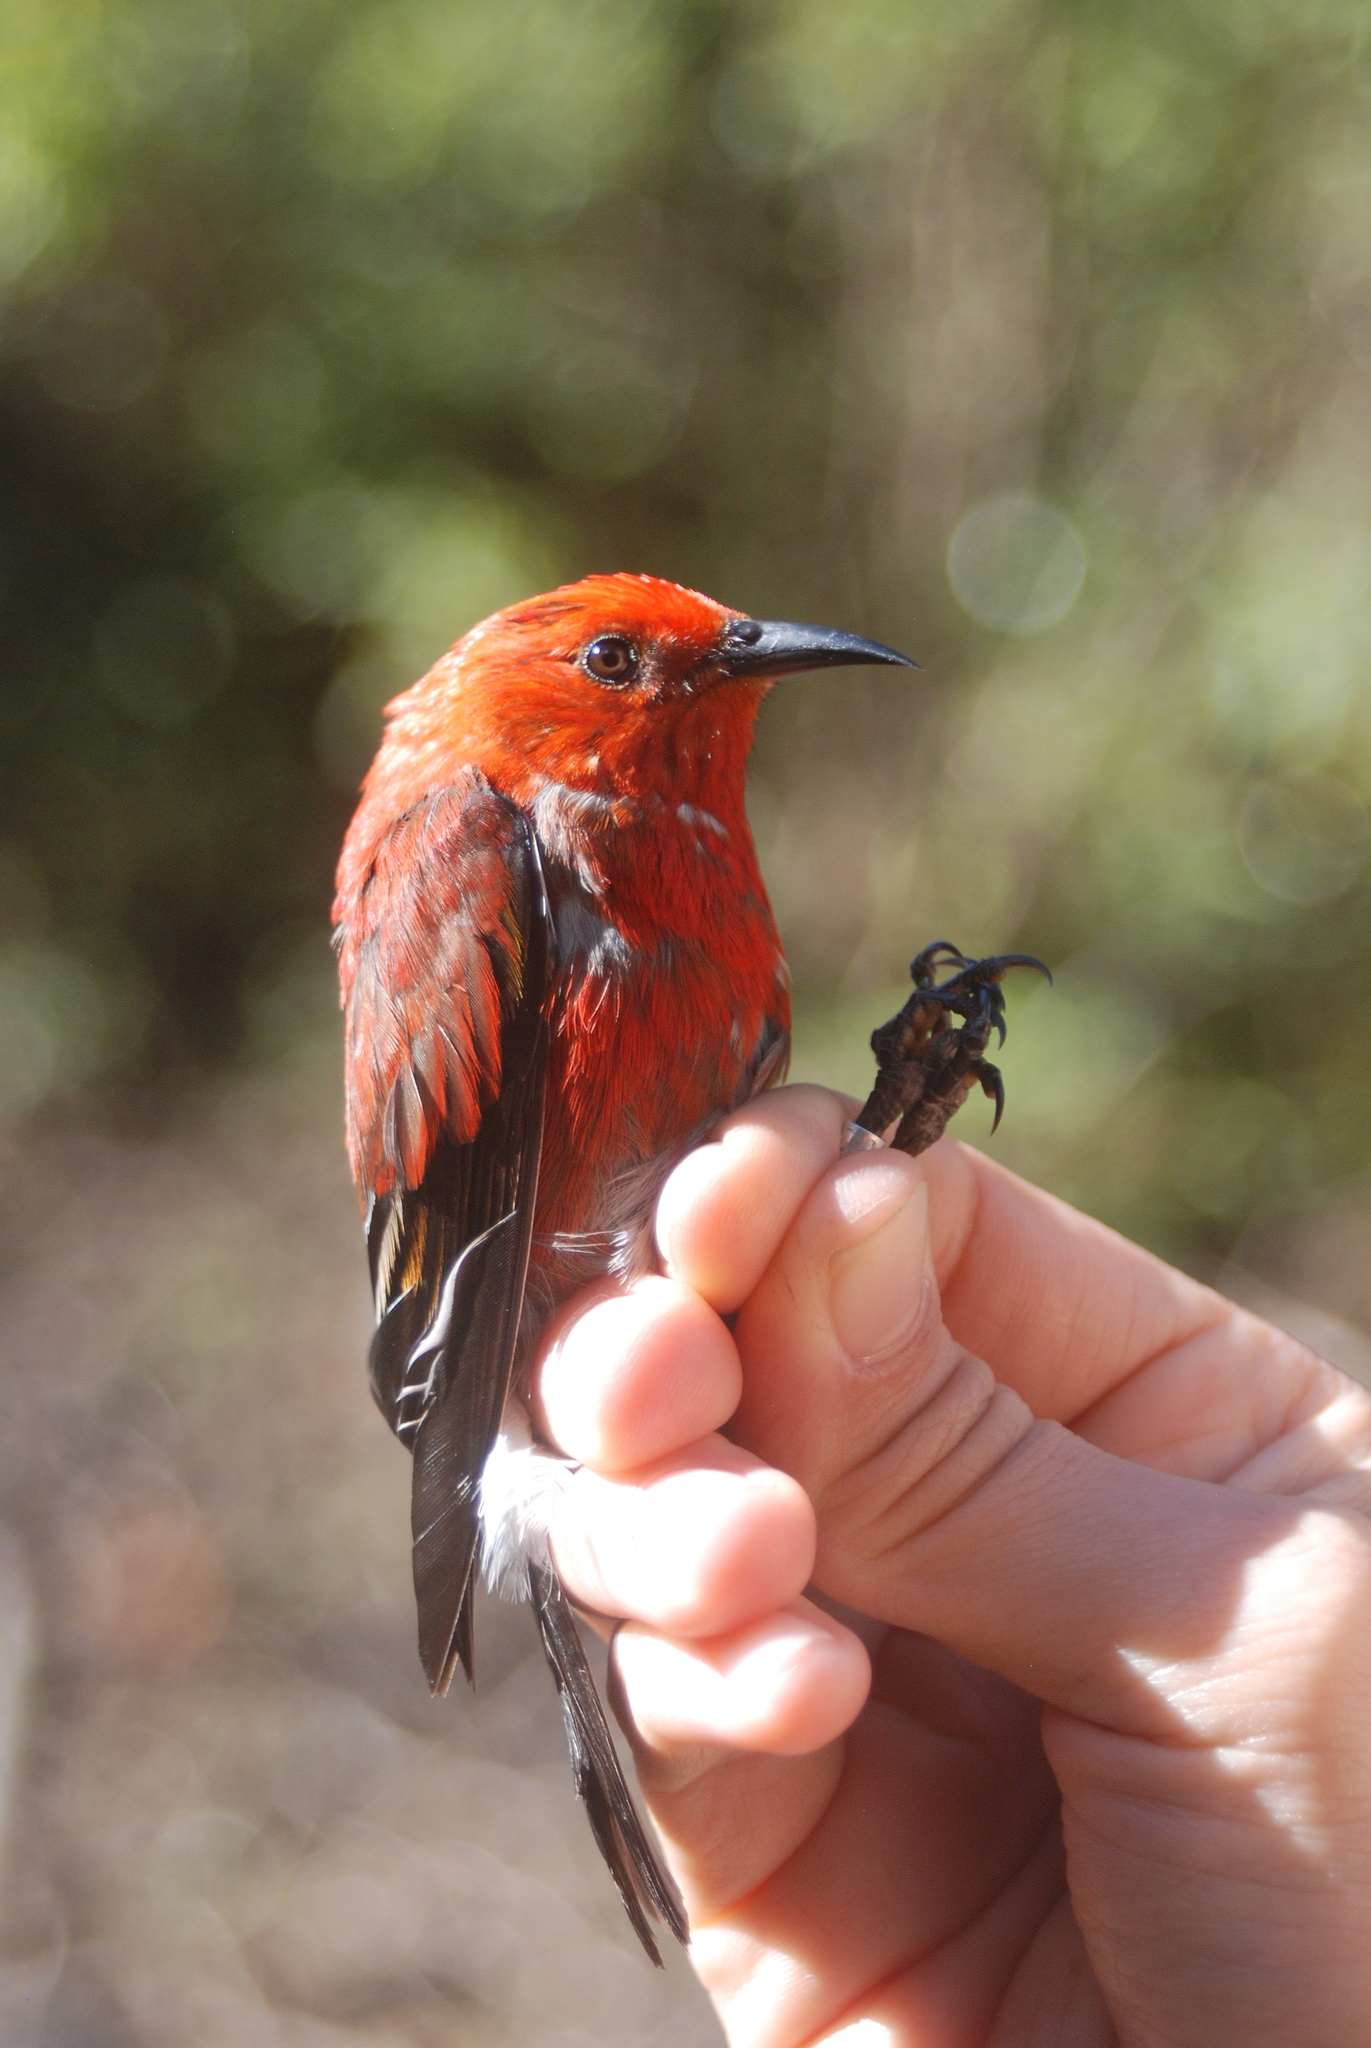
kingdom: Animalia
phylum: Chordata
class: Aves
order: Passeriformes
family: Fringillidae
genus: Himatione
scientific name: Himatione sanguinea
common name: Apapane
